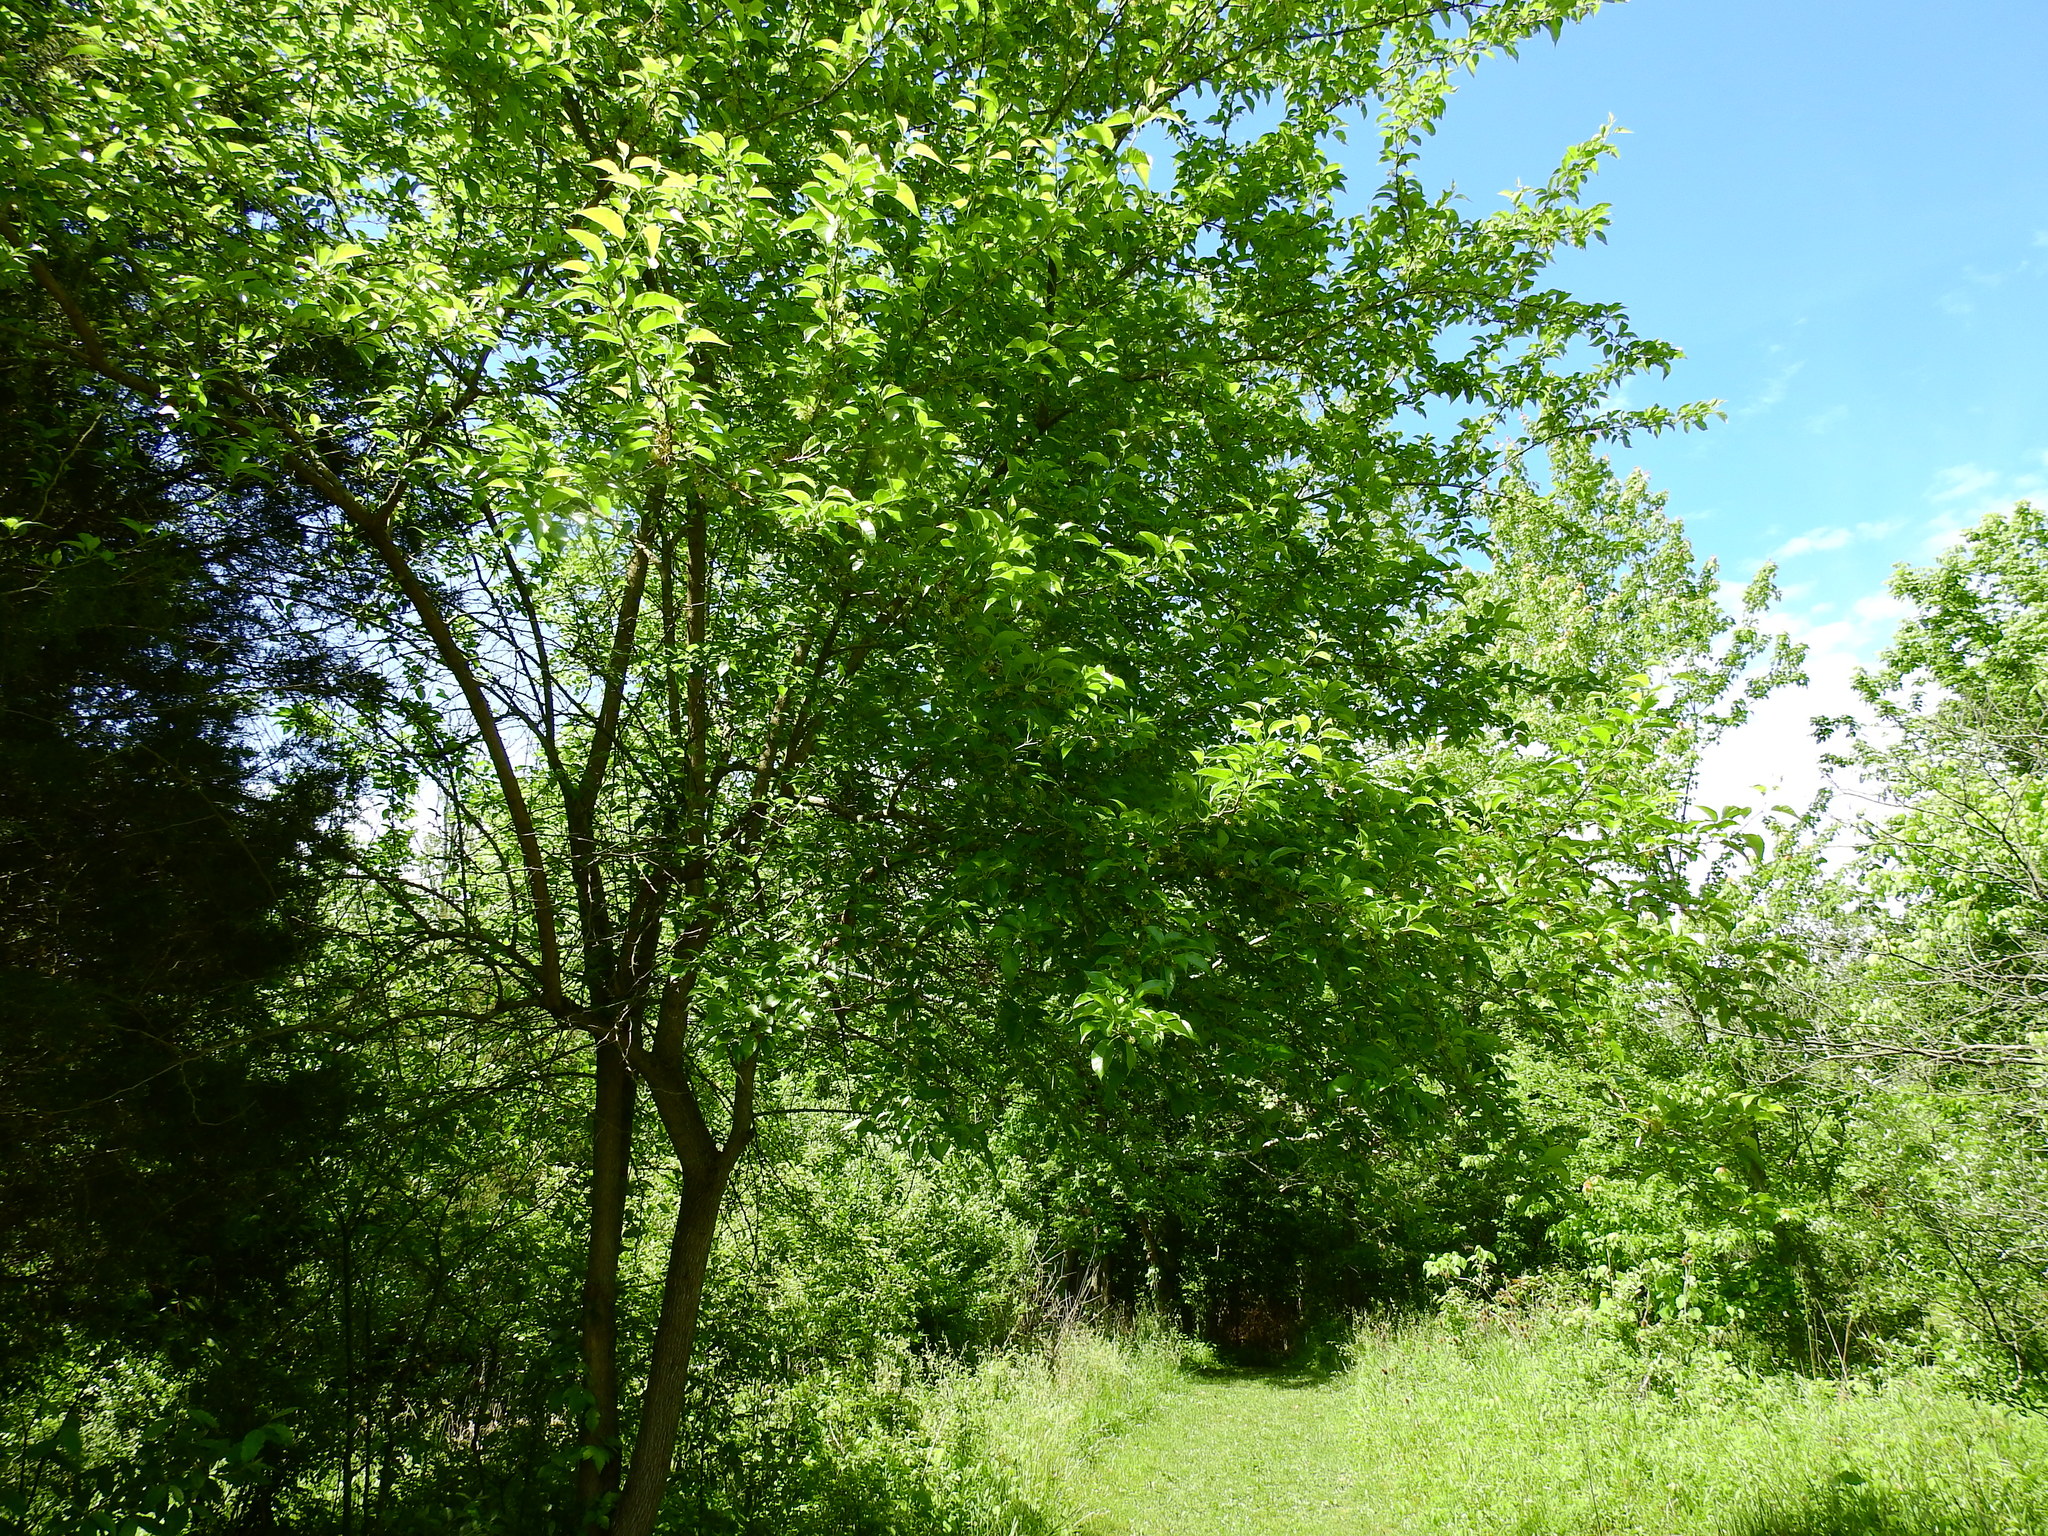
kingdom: Plantae
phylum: Tracheophyta
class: Magnoliopsida
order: Rosales
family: Moraceae
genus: Maclura
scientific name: Maclura pomifera
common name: Osage-orange
